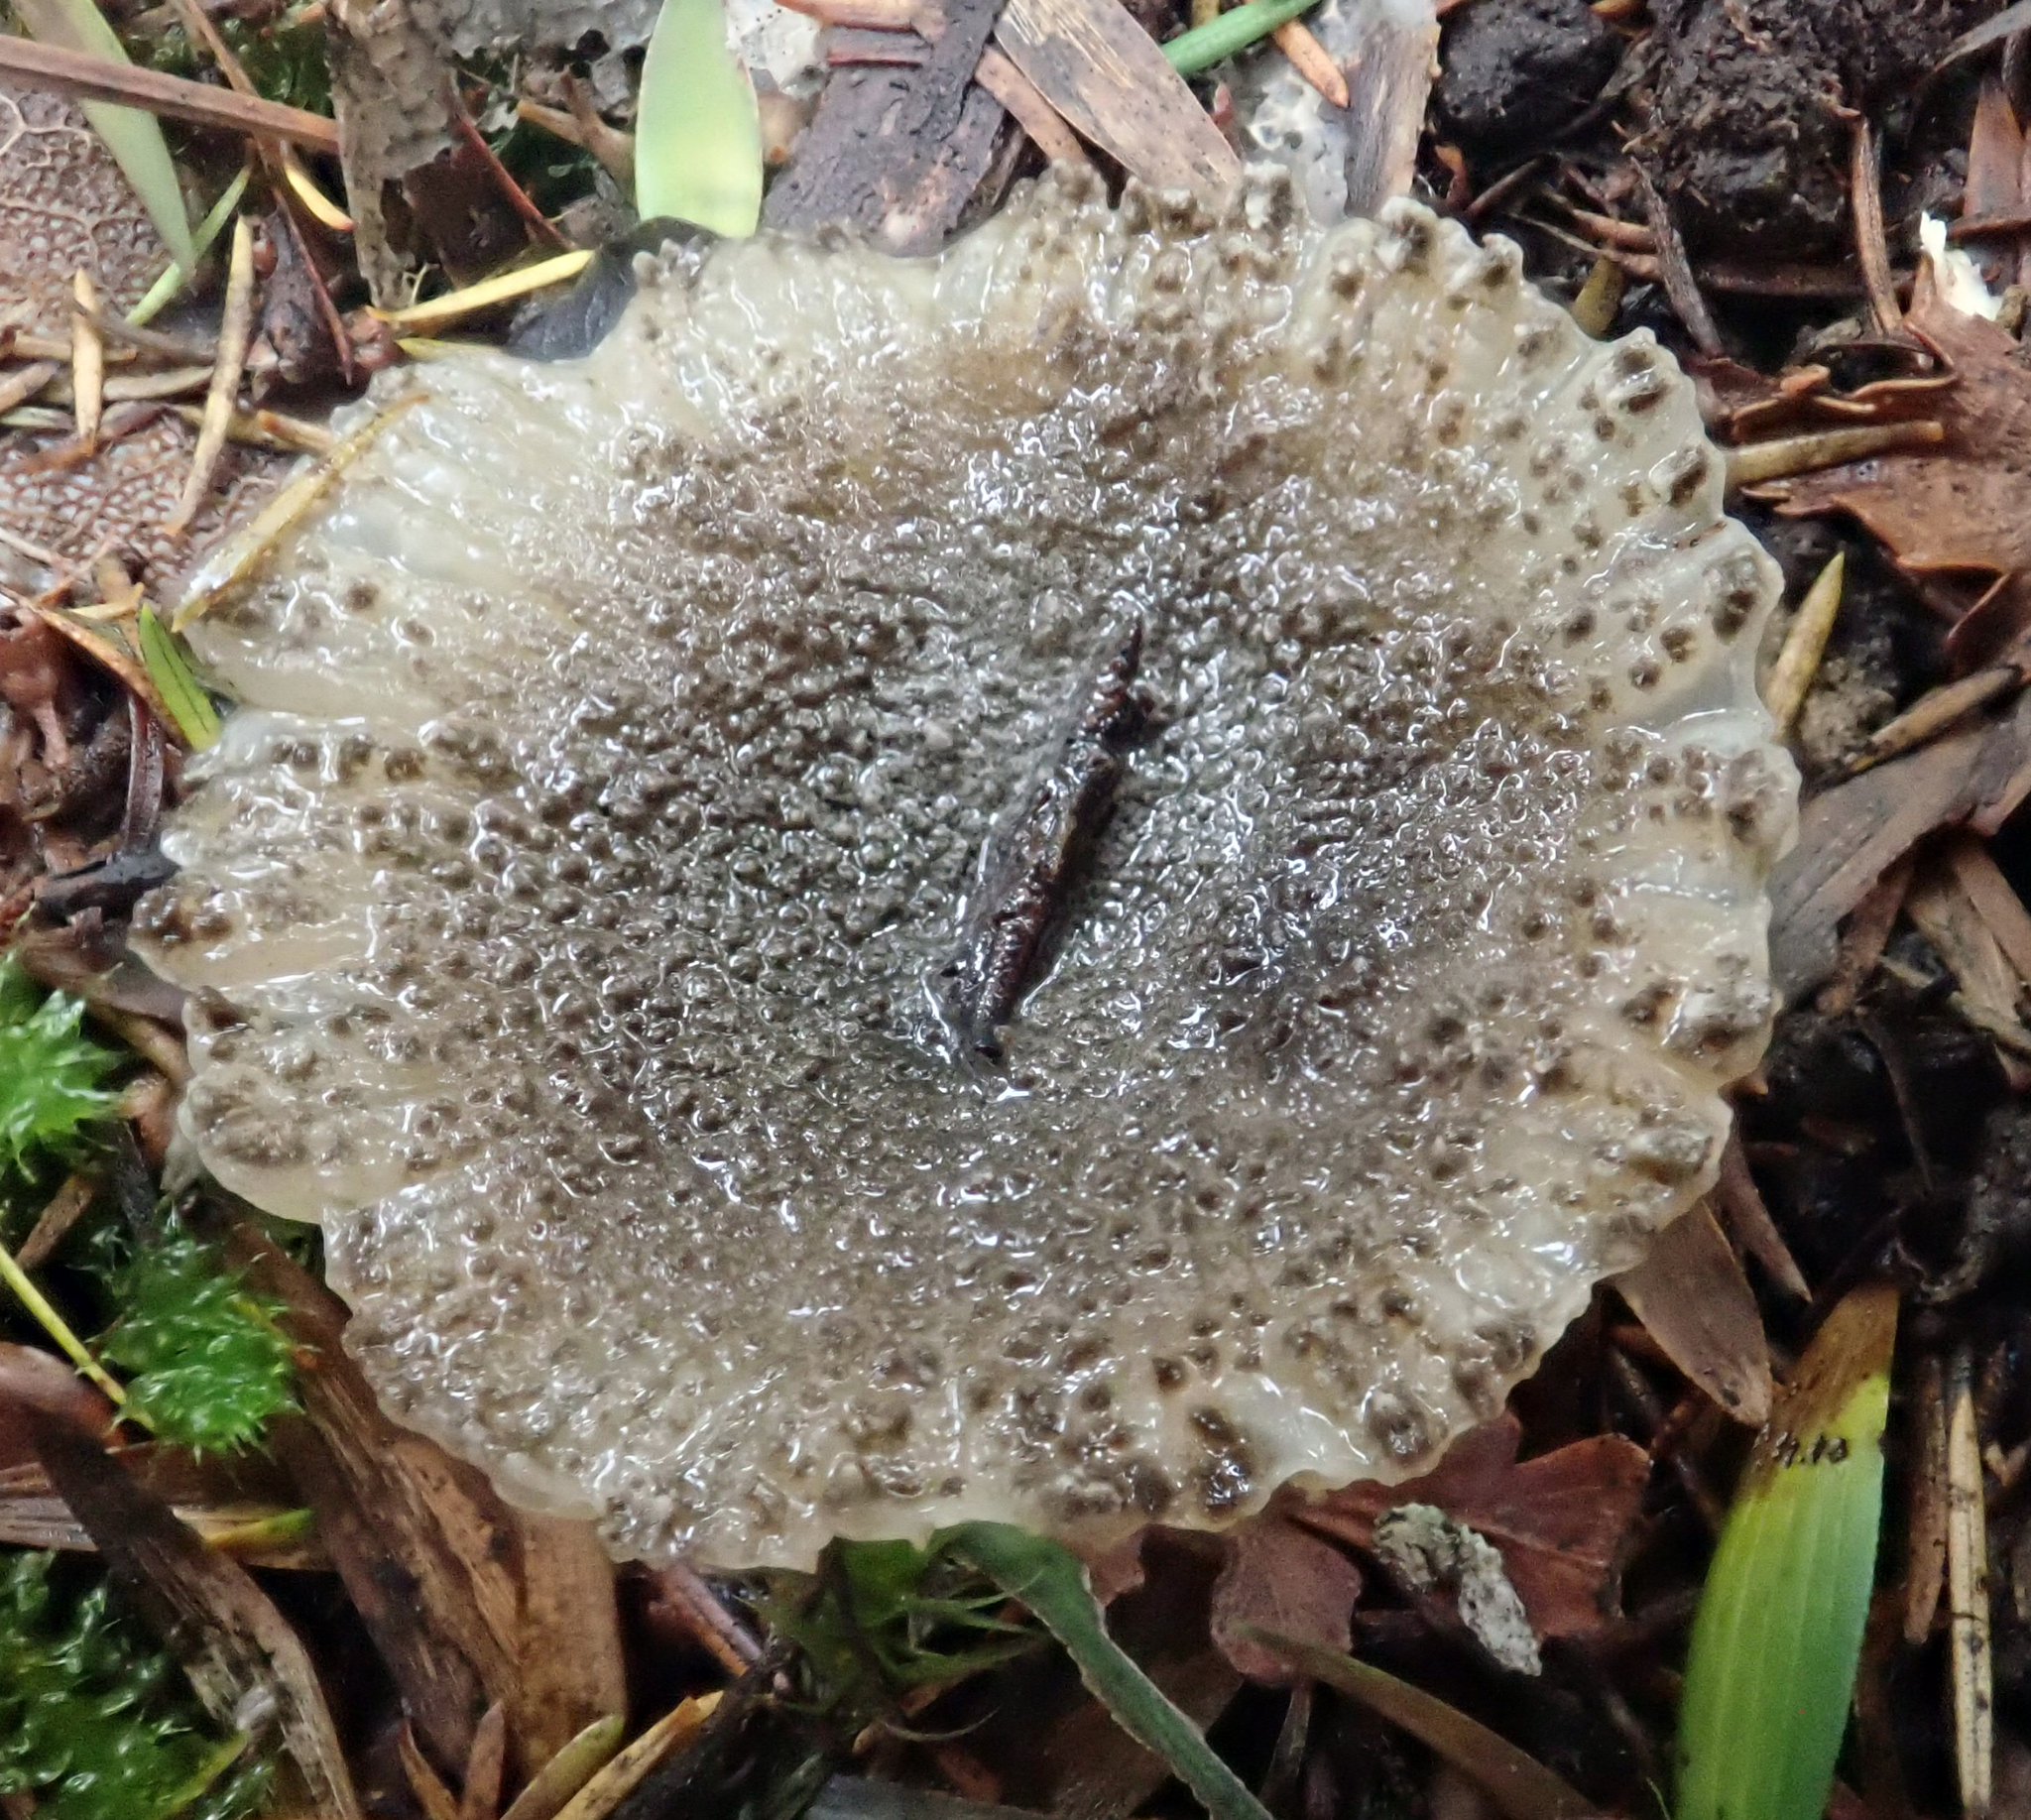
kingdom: Fungi
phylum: Basidiomycota
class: Agaricomycetes
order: Agaricales
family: Amanitaceae
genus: Amanita
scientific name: Amanita nehuta
